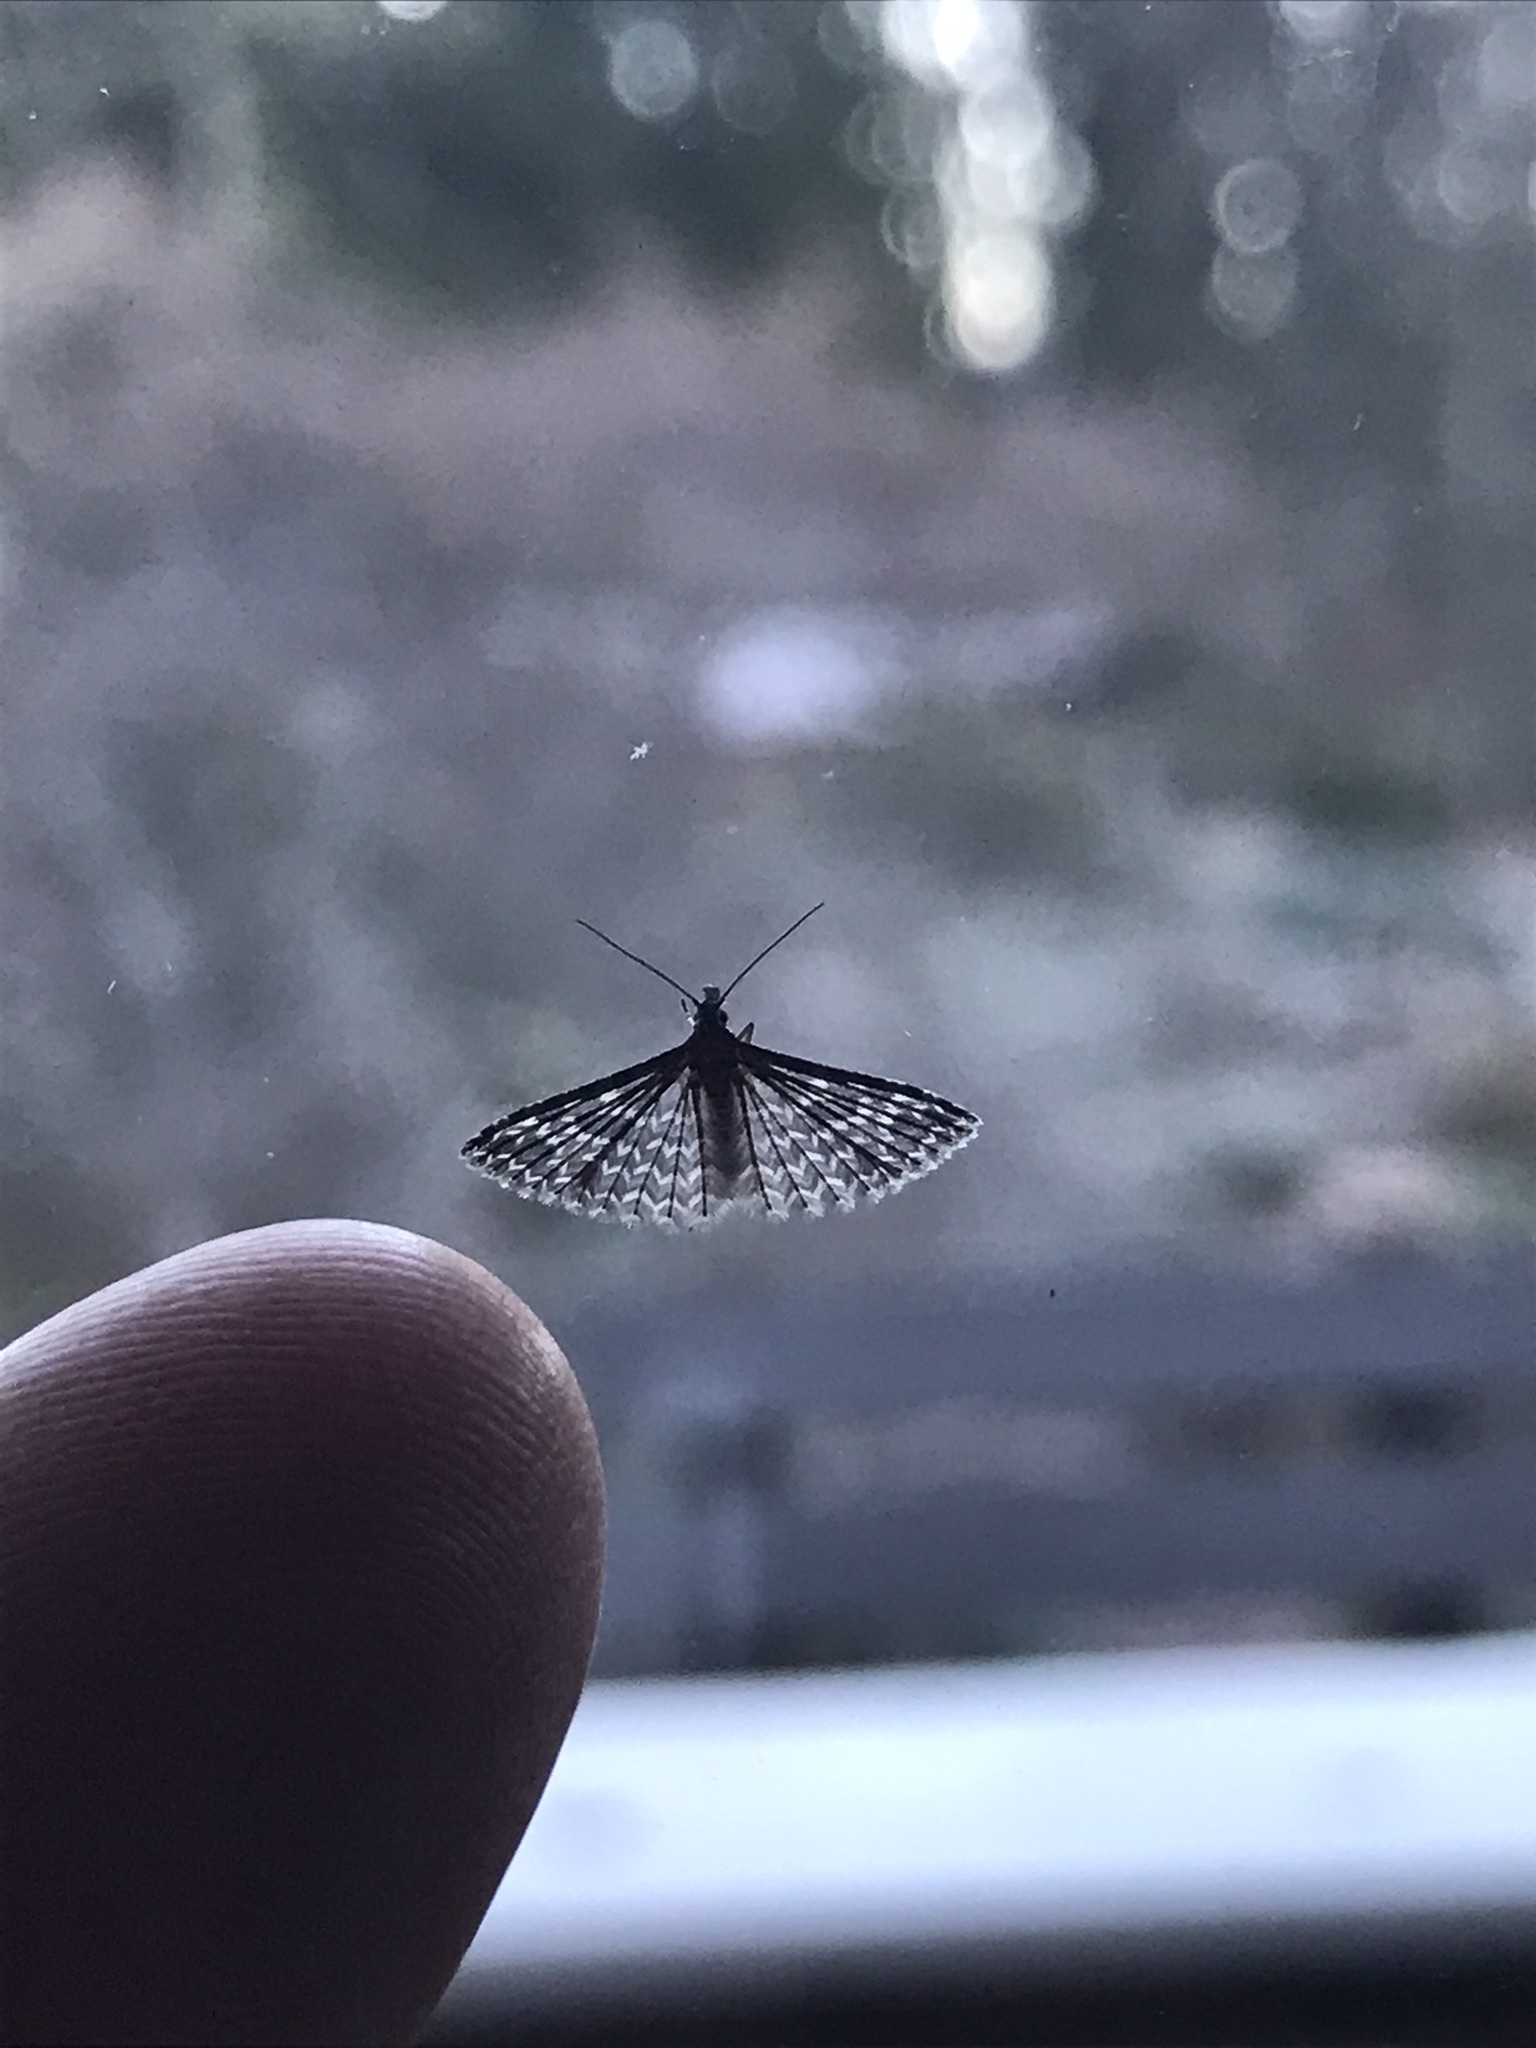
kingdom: Animalia
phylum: Arthropoda
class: Insecta
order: Lepidoptera
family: Alucitidae
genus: Alucita
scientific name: Alucita montana
